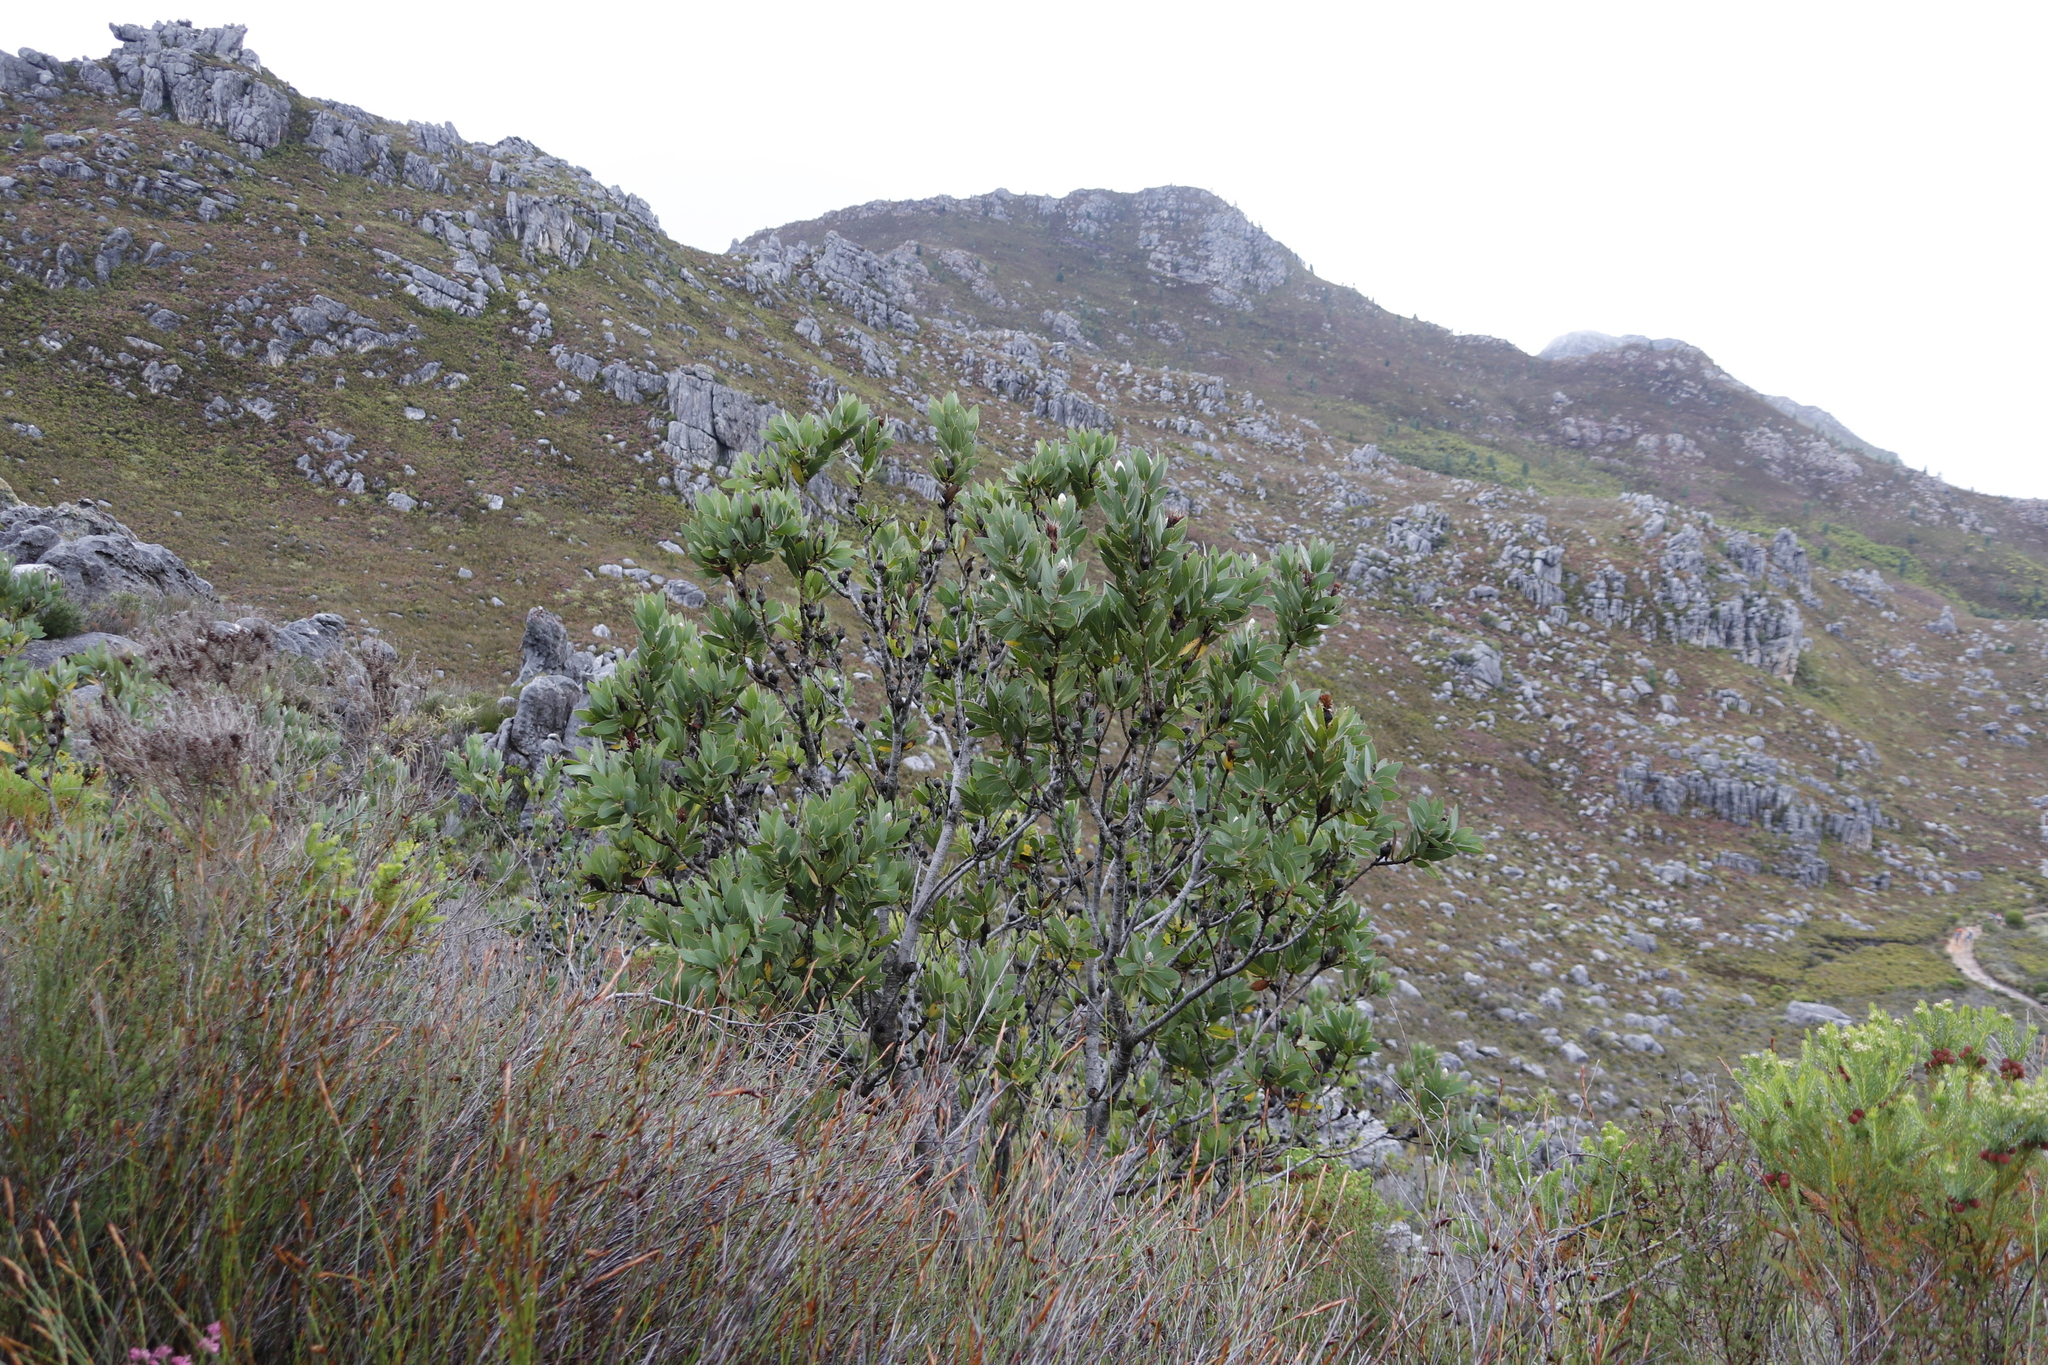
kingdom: Plantae
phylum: Tracheophyta
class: Magnoliopsida
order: Proteales
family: Proteaceae
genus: Protea
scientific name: Protea lacticolor
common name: Hottentot sugarbush
